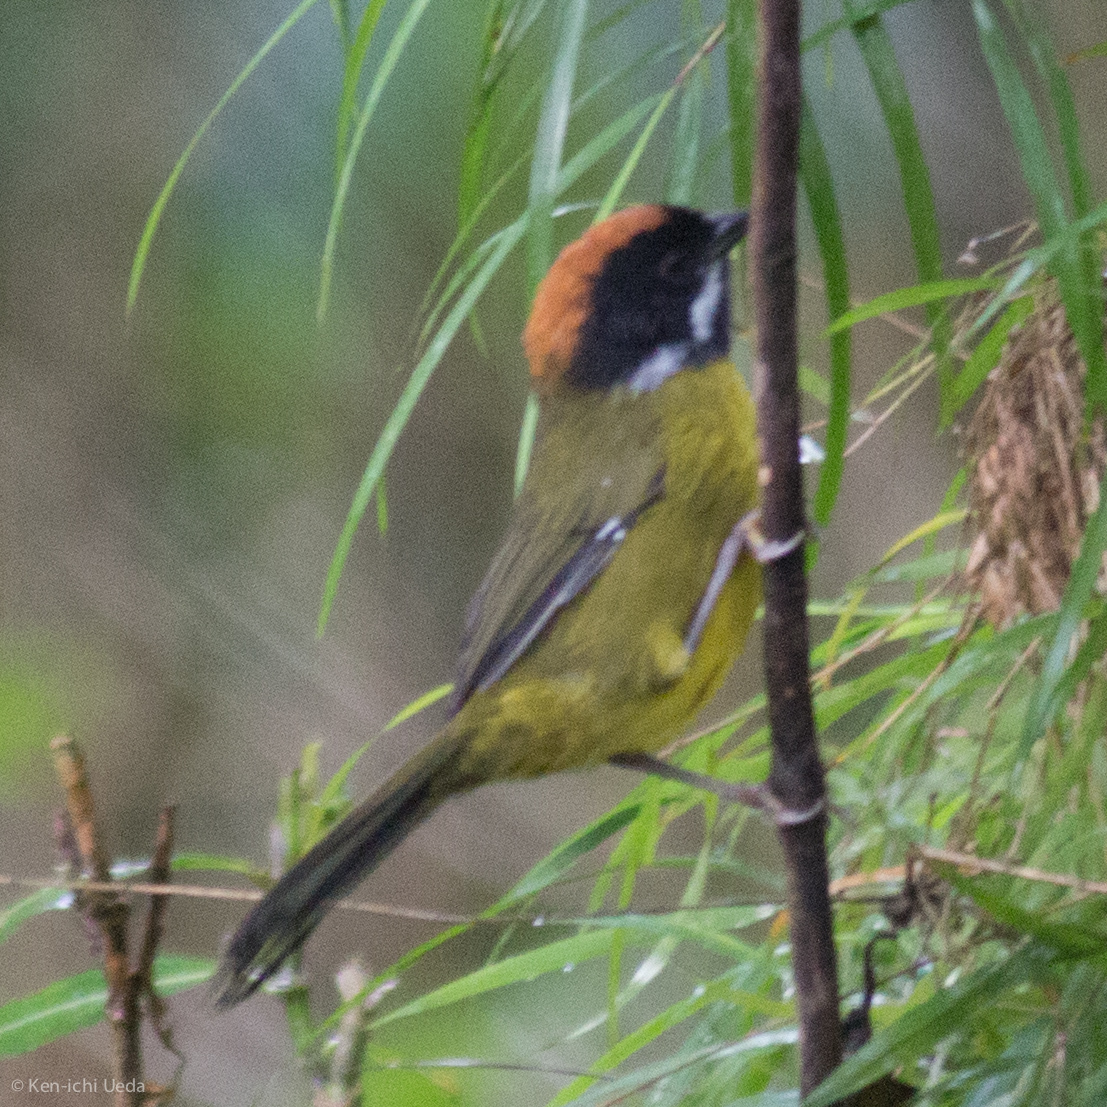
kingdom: Animalia
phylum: Chordata
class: Aves
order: Passeriformes
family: Passerellidae
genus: Atlapetes
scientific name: Atlapetes albofrenatus
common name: Moustached brushfinch
